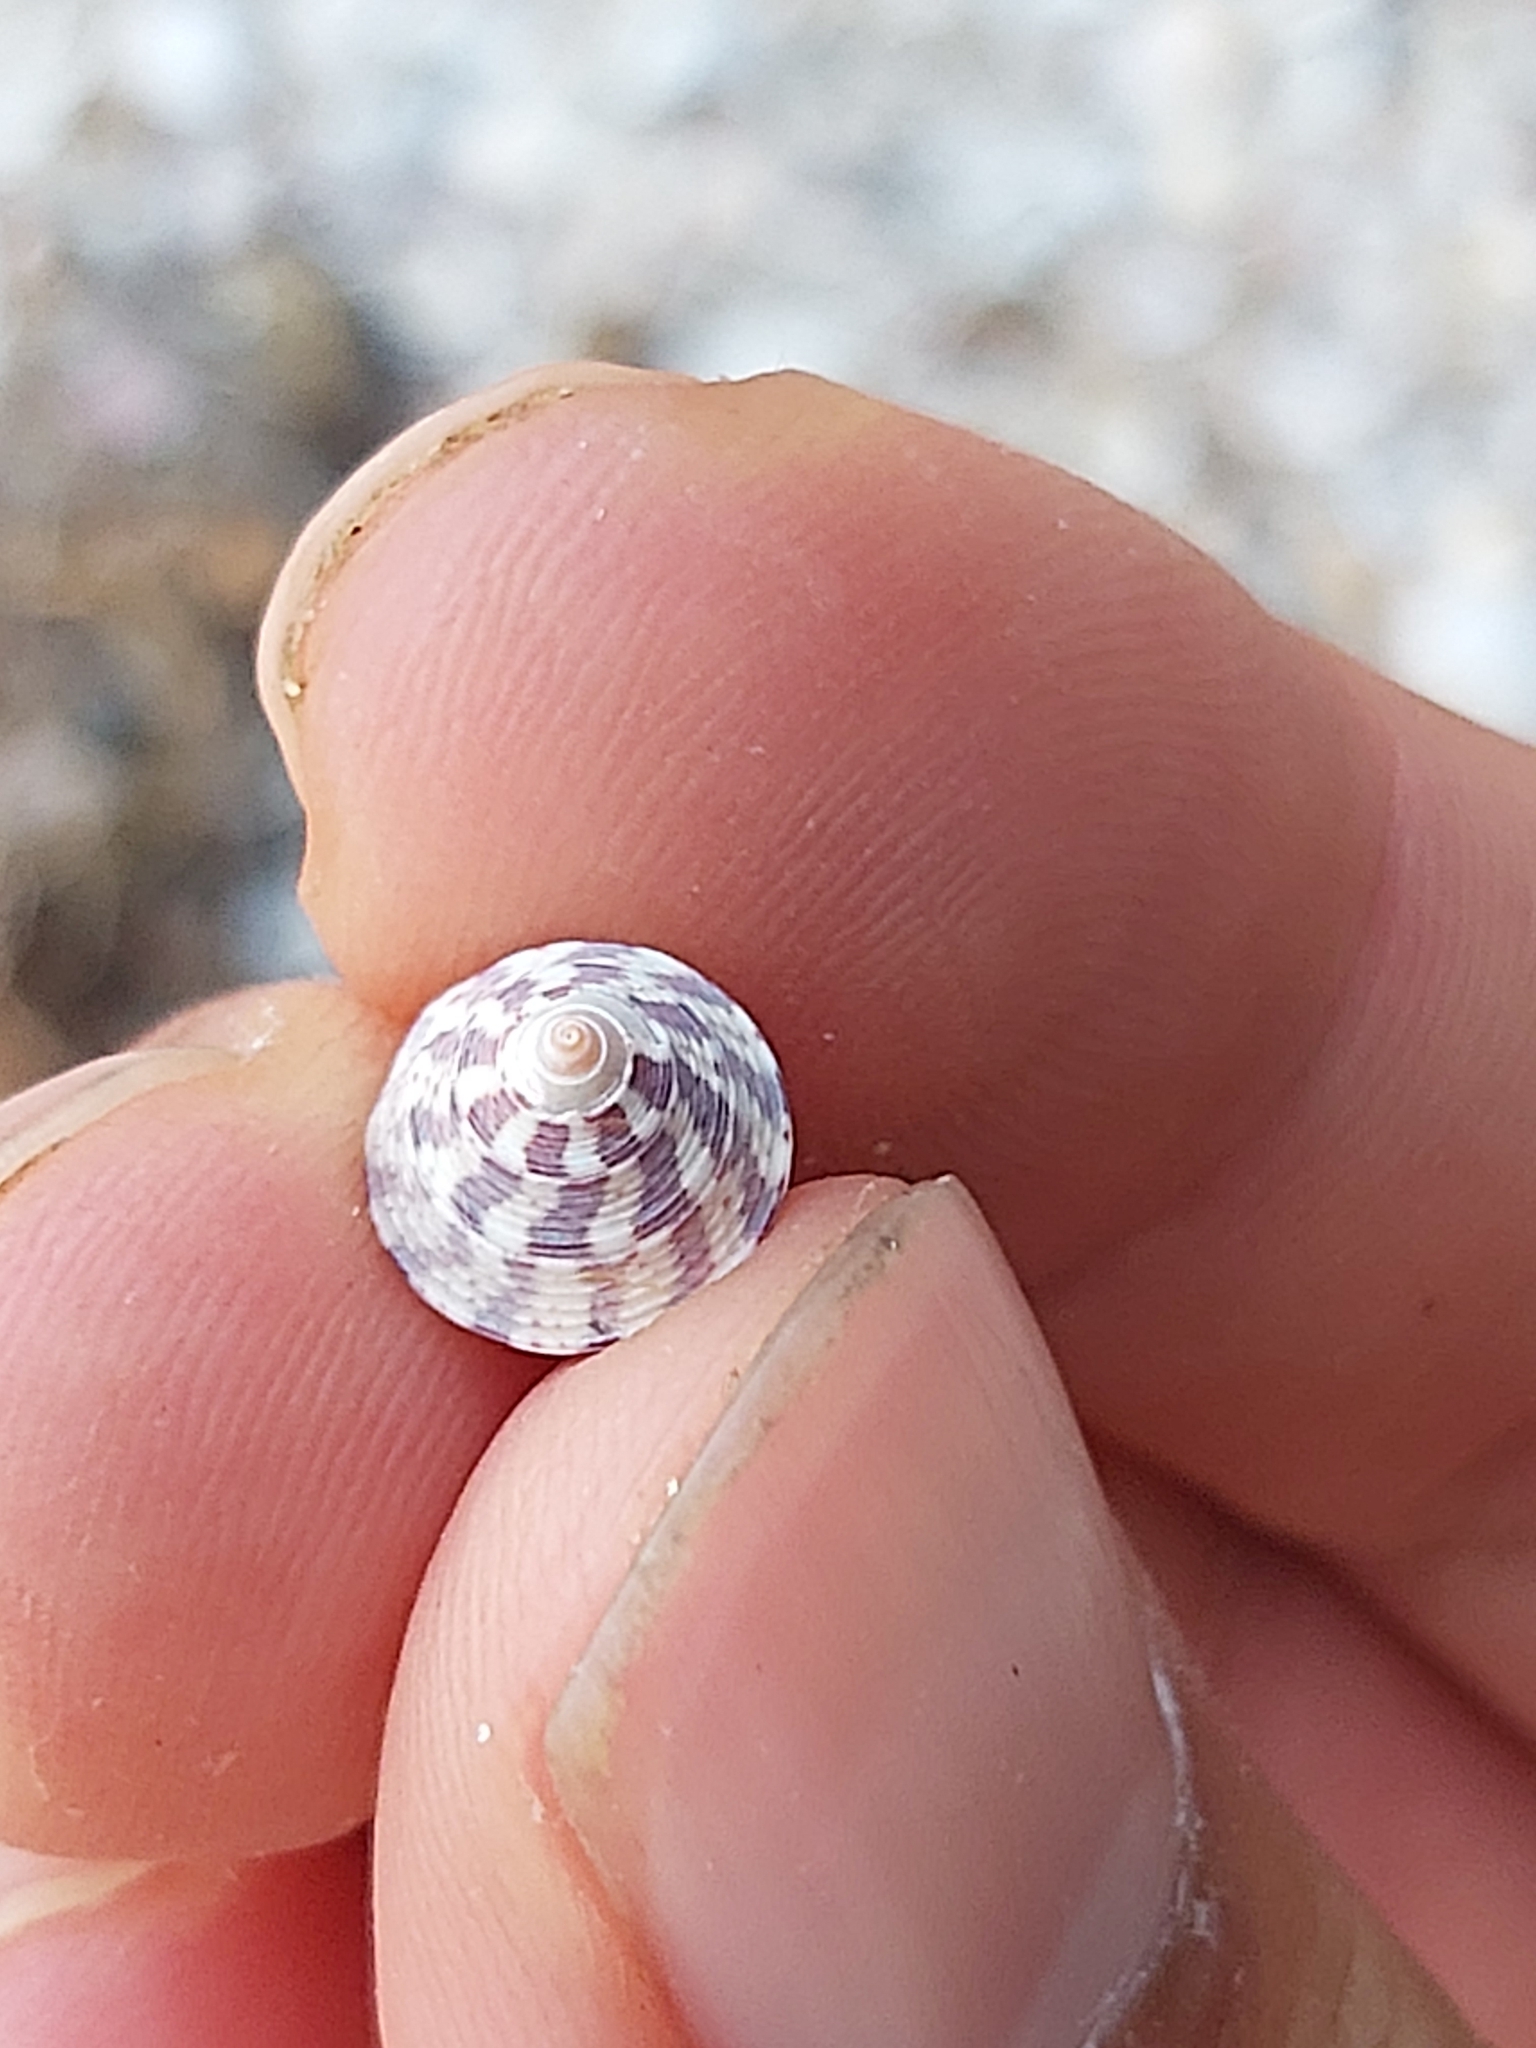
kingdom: Animalia
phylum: Mollusca
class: Gastropoda
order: Trochida
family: Trochidae
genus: Calthalotia
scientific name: Calthalotia arruensis
